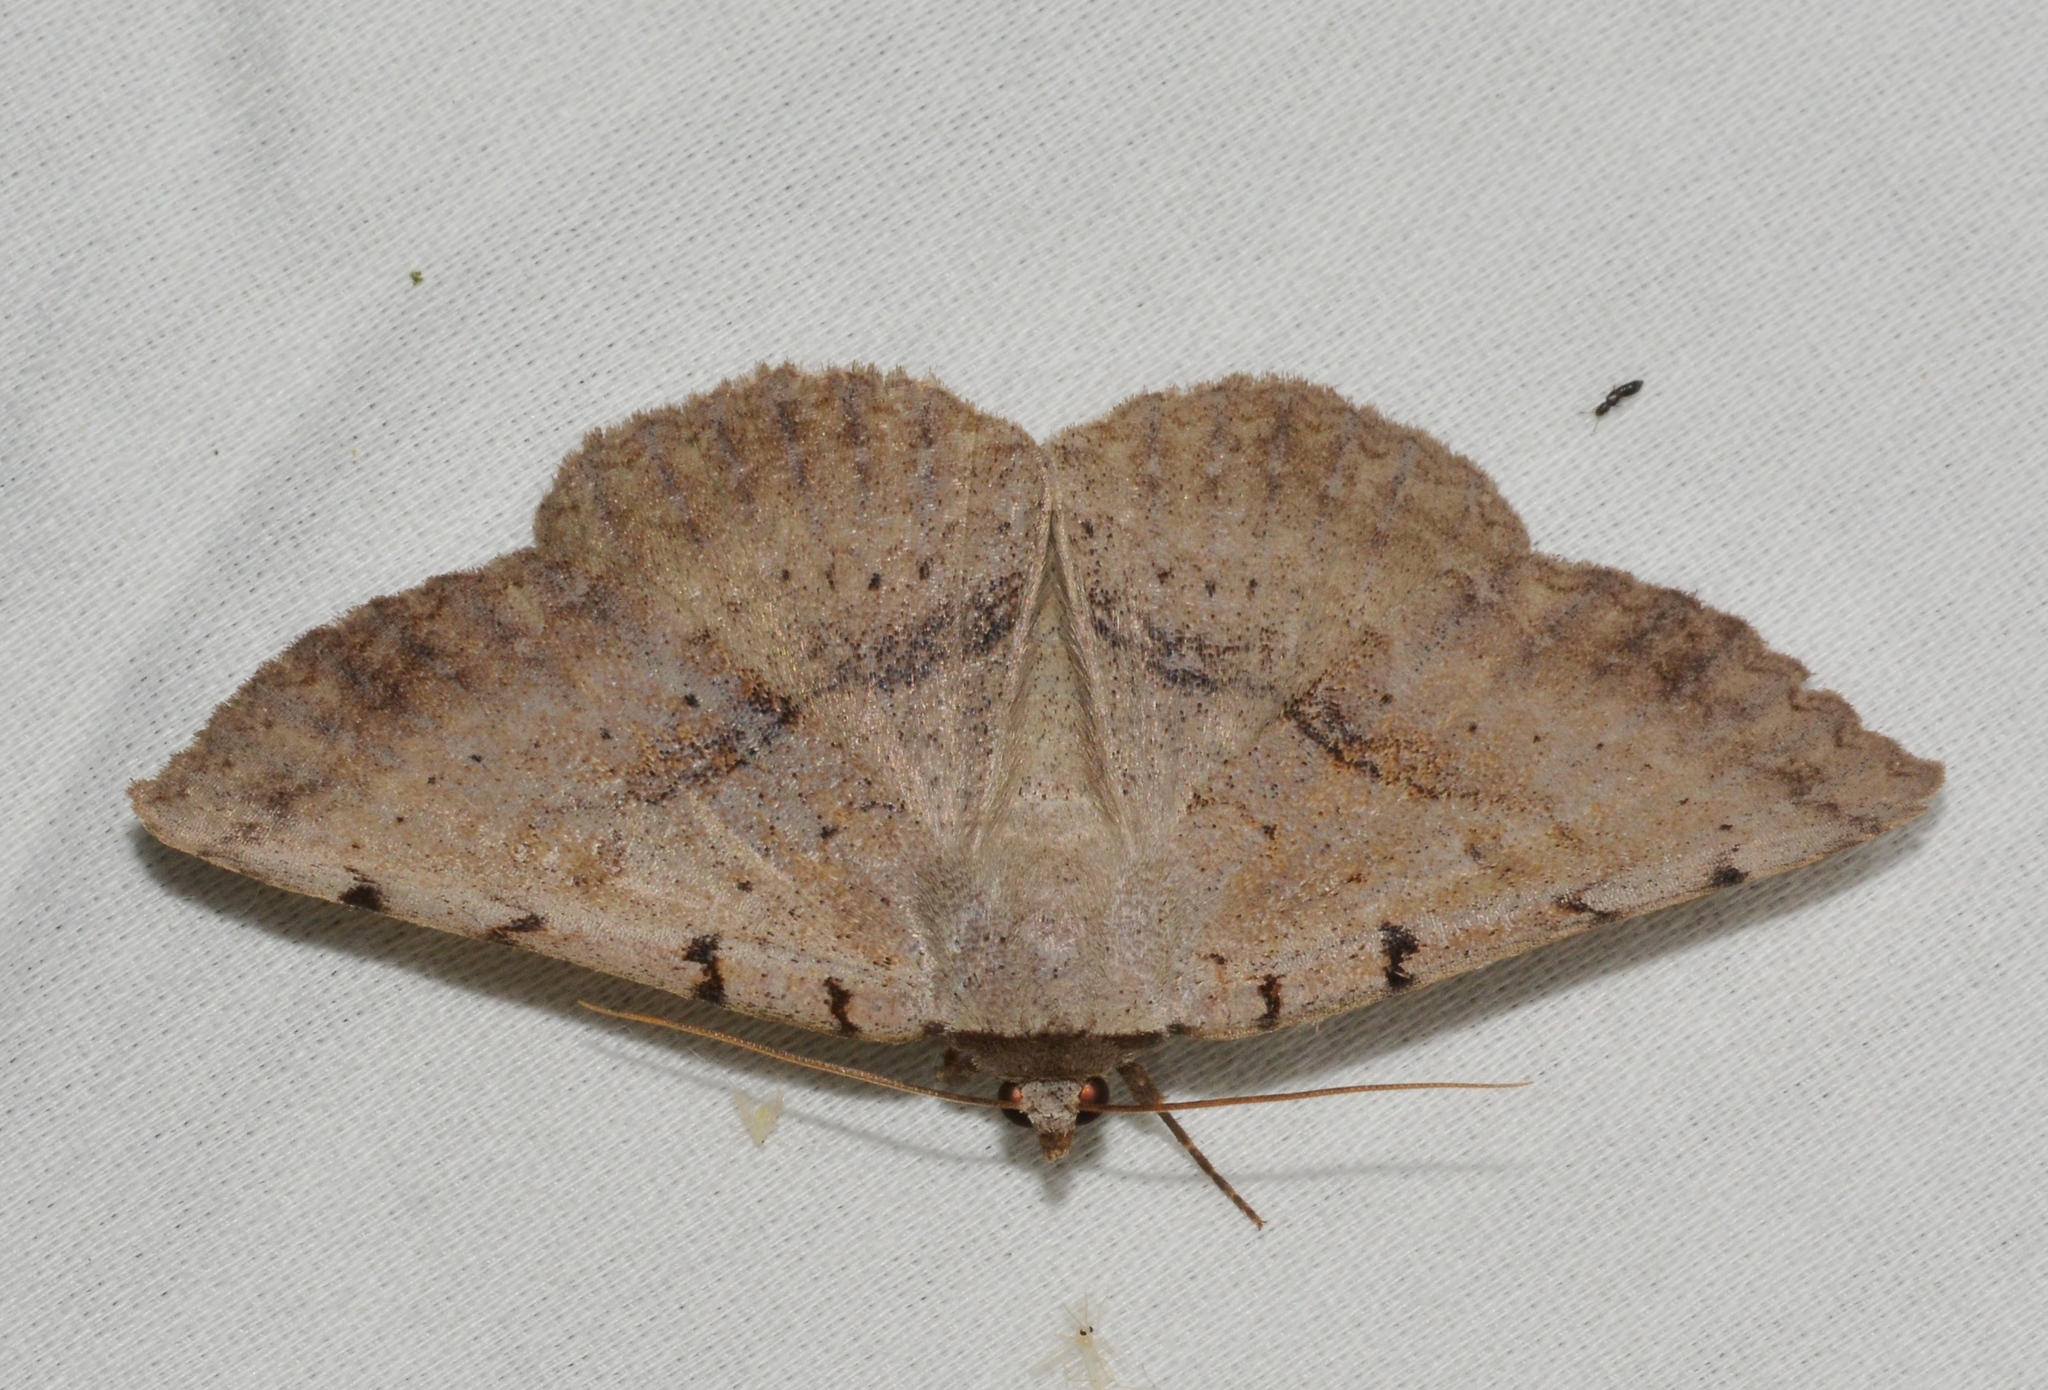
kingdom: Animalia
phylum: Arthropoda
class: Insecta
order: Lepidoptera
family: Erebidae
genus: Spiloloma
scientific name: Spiloloma lunilinea
